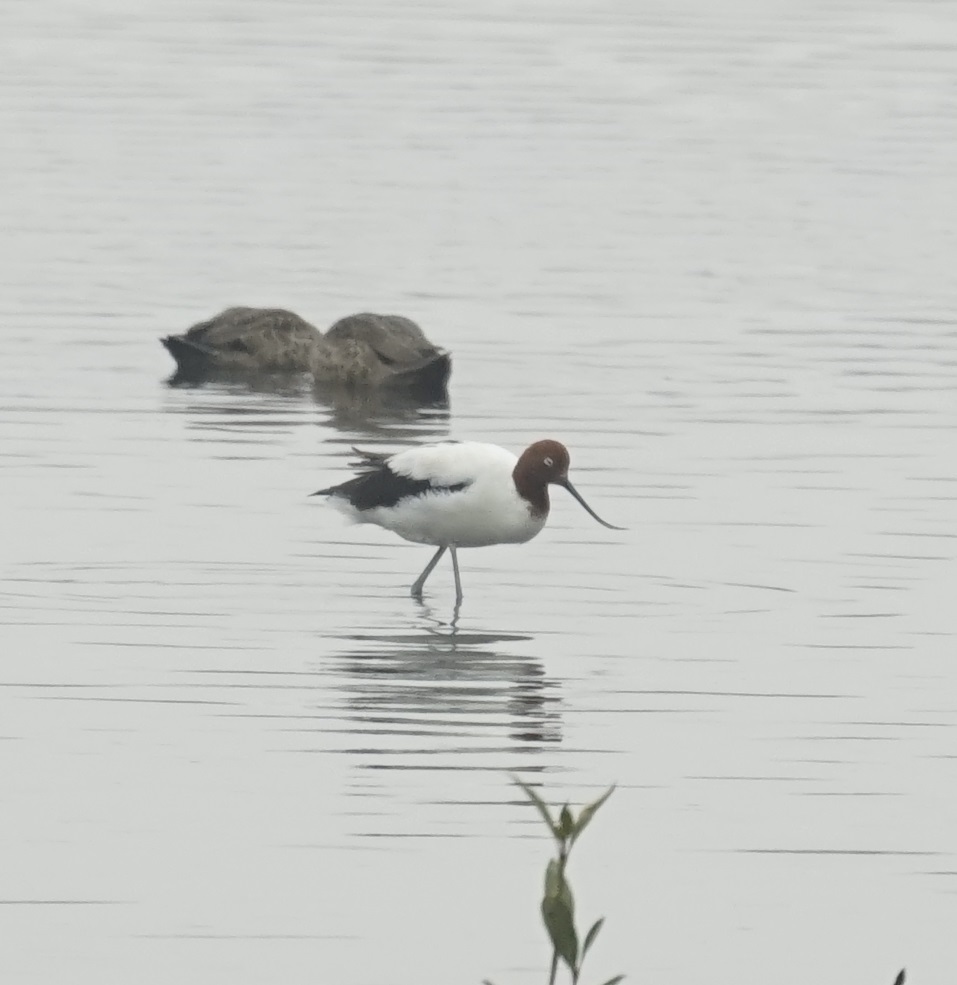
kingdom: Animalia
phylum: Chordata
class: Aves
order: Charadriiformes
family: Recurvirostridae
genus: Recurvirostra
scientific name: Recurvirostra novaehollandiae
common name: Red-necked avocet
